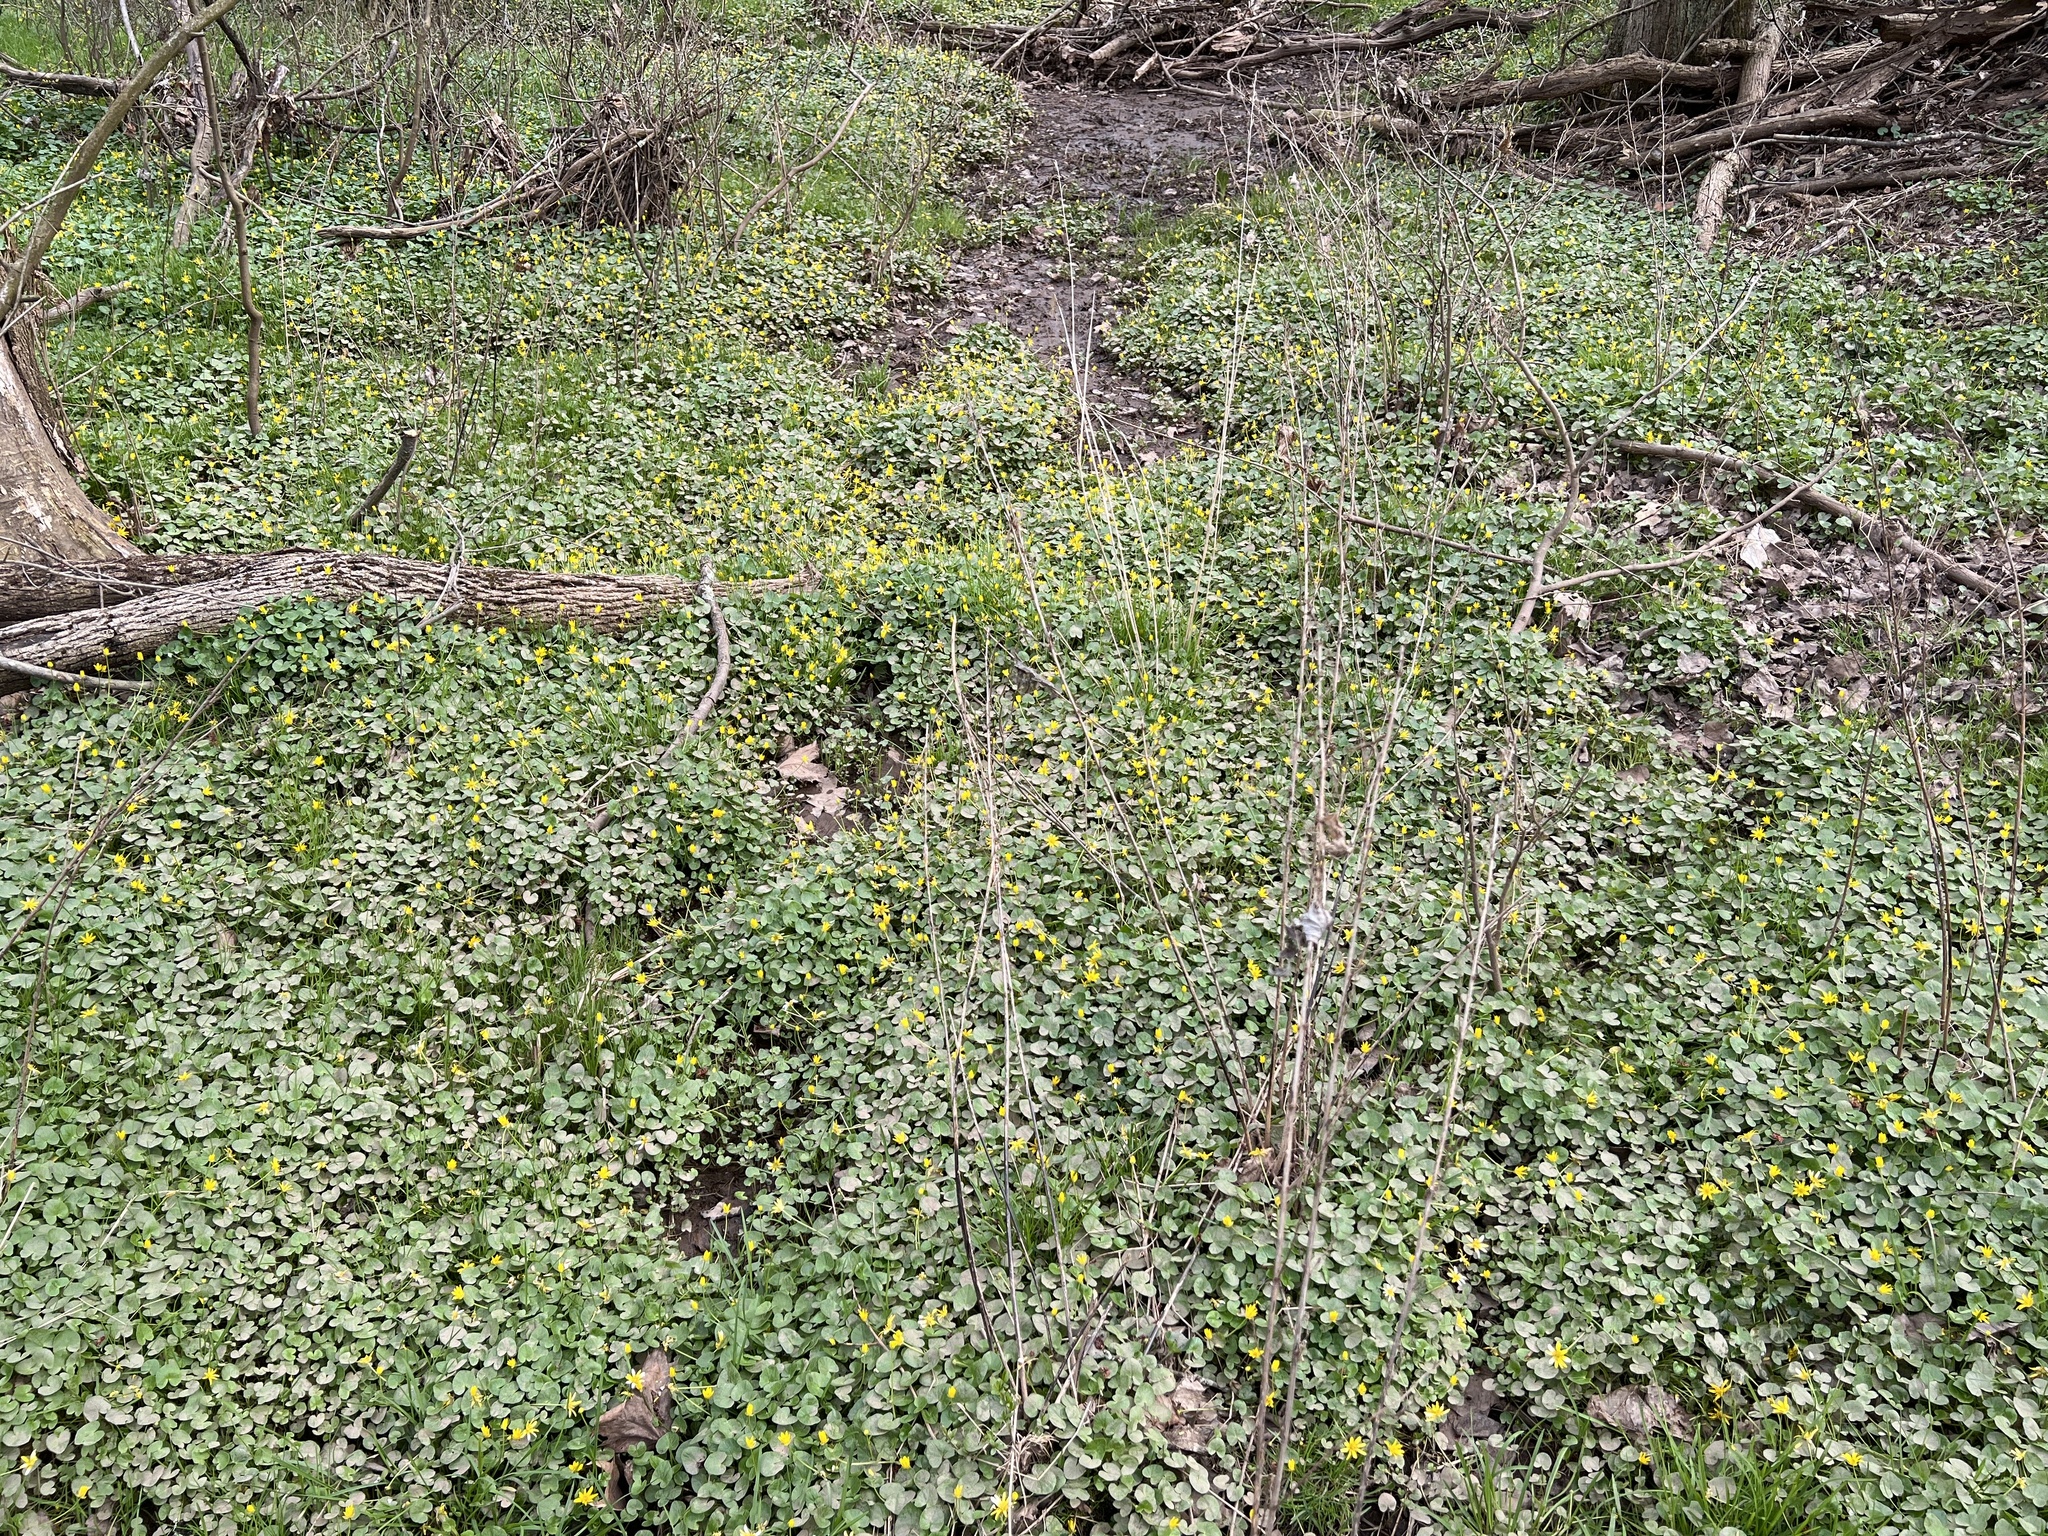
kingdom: Plantae
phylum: Tracheophyta
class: Magnoliopsida
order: Ranunculales
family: Ranunculaceae
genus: Ficaria
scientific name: Ficaria verna
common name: Lesser celandine
